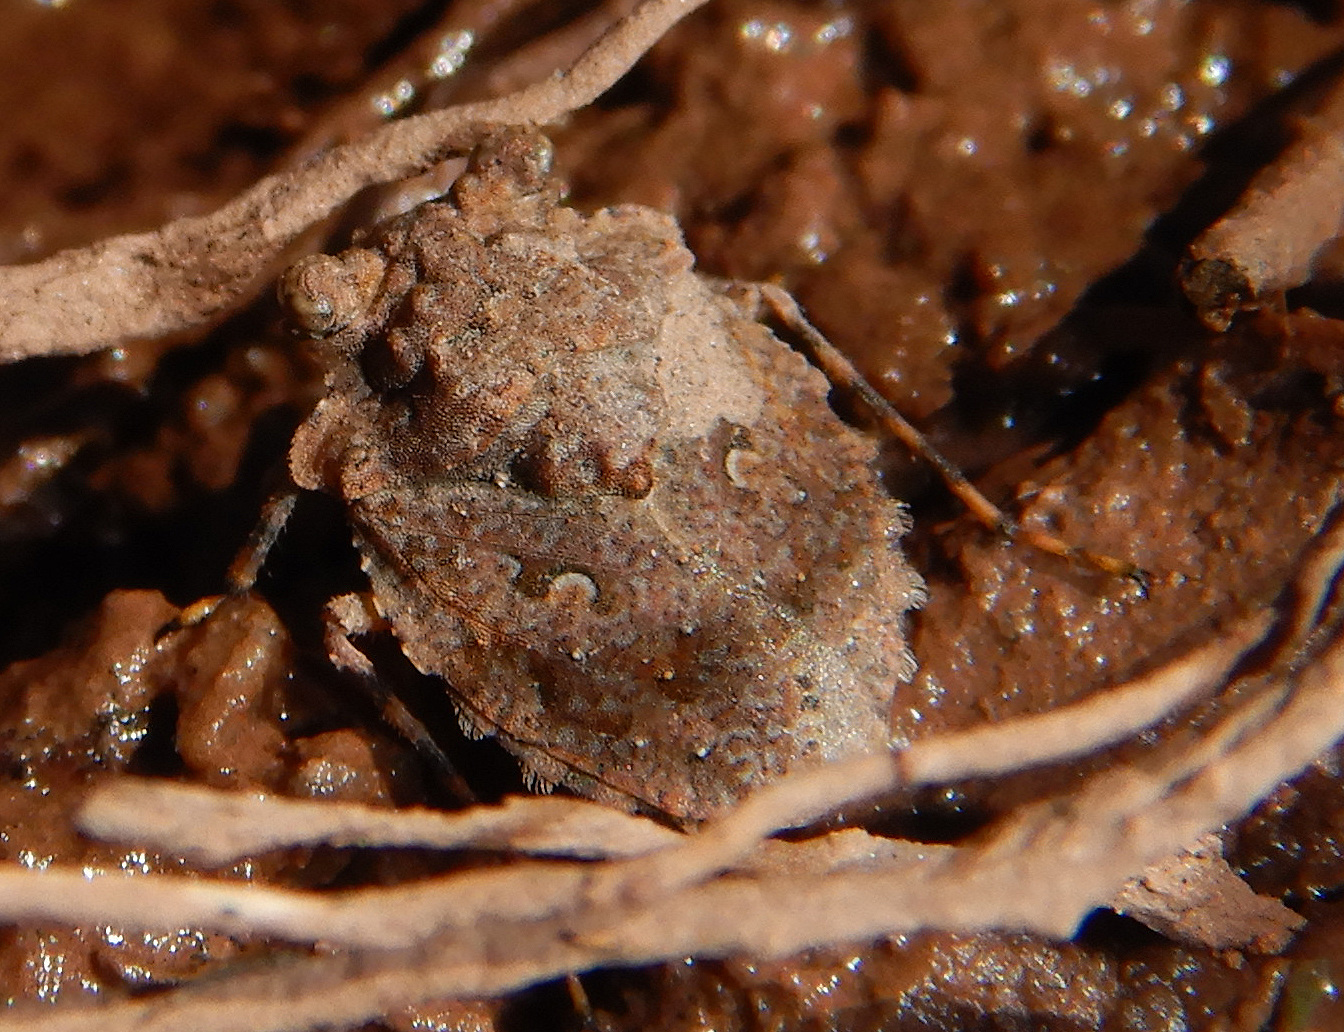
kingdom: Animalia
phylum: Arthropoda
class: Insecta
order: Hemiptera
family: Gelastocoridae
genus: Gelastocoris
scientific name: Gelastocoris oculatus
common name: Toad bug
